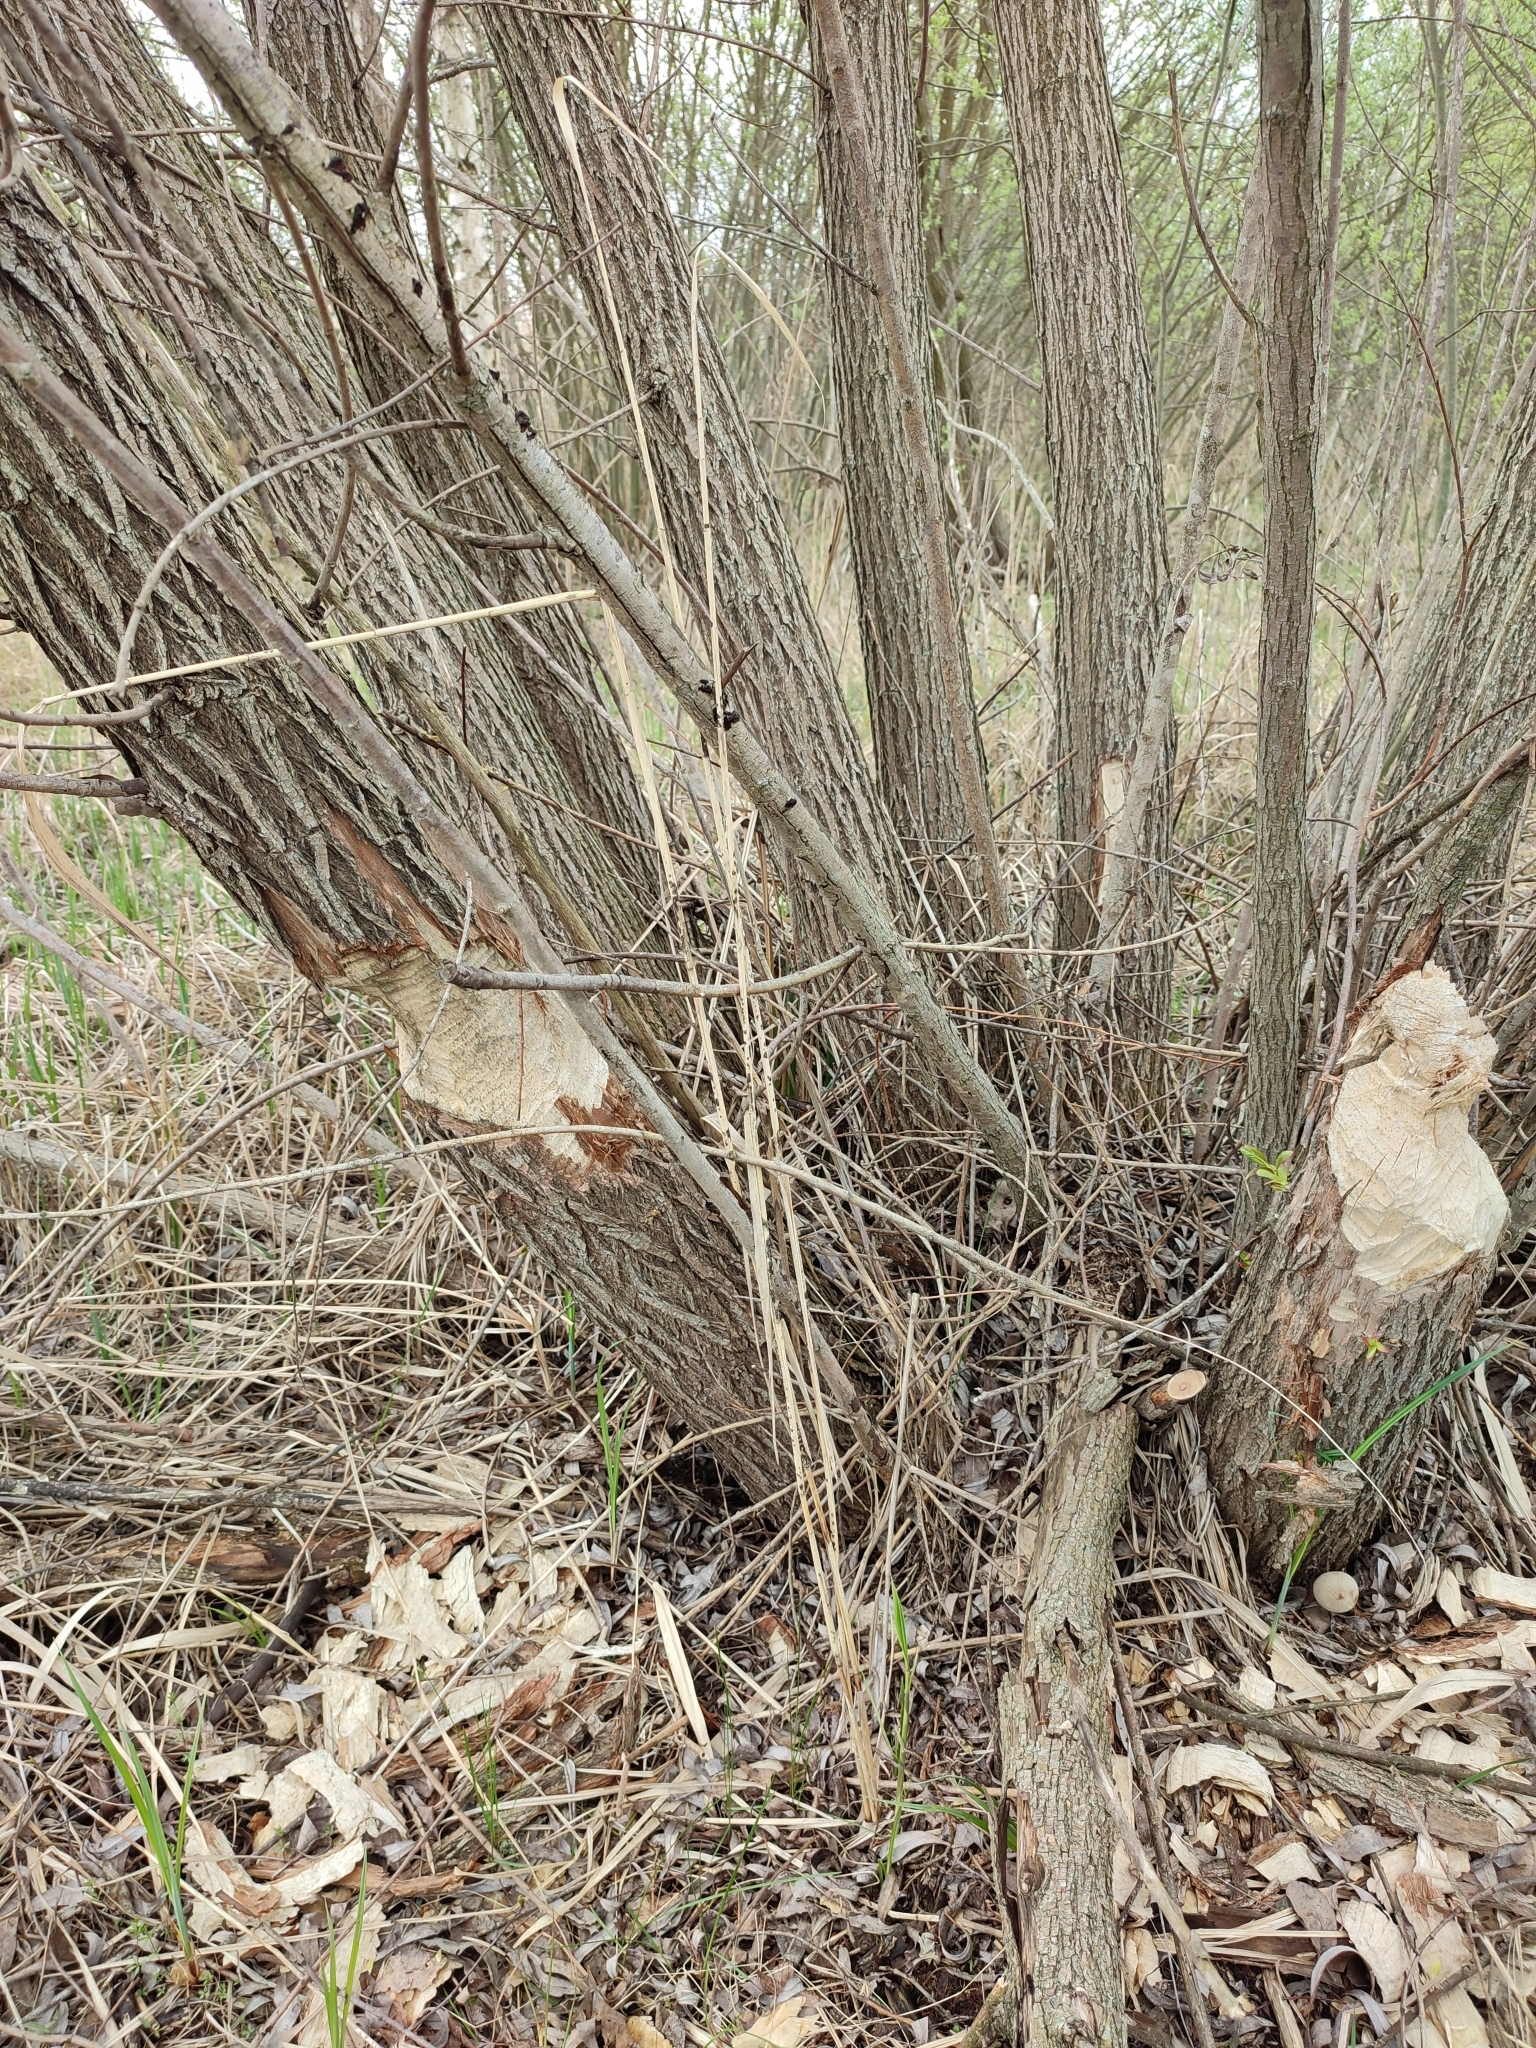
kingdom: Animalia
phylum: Chordata
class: Mammalia
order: Rodentia
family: Castoridae
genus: Castor
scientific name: Castor fiber
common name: Eurasian beaver
